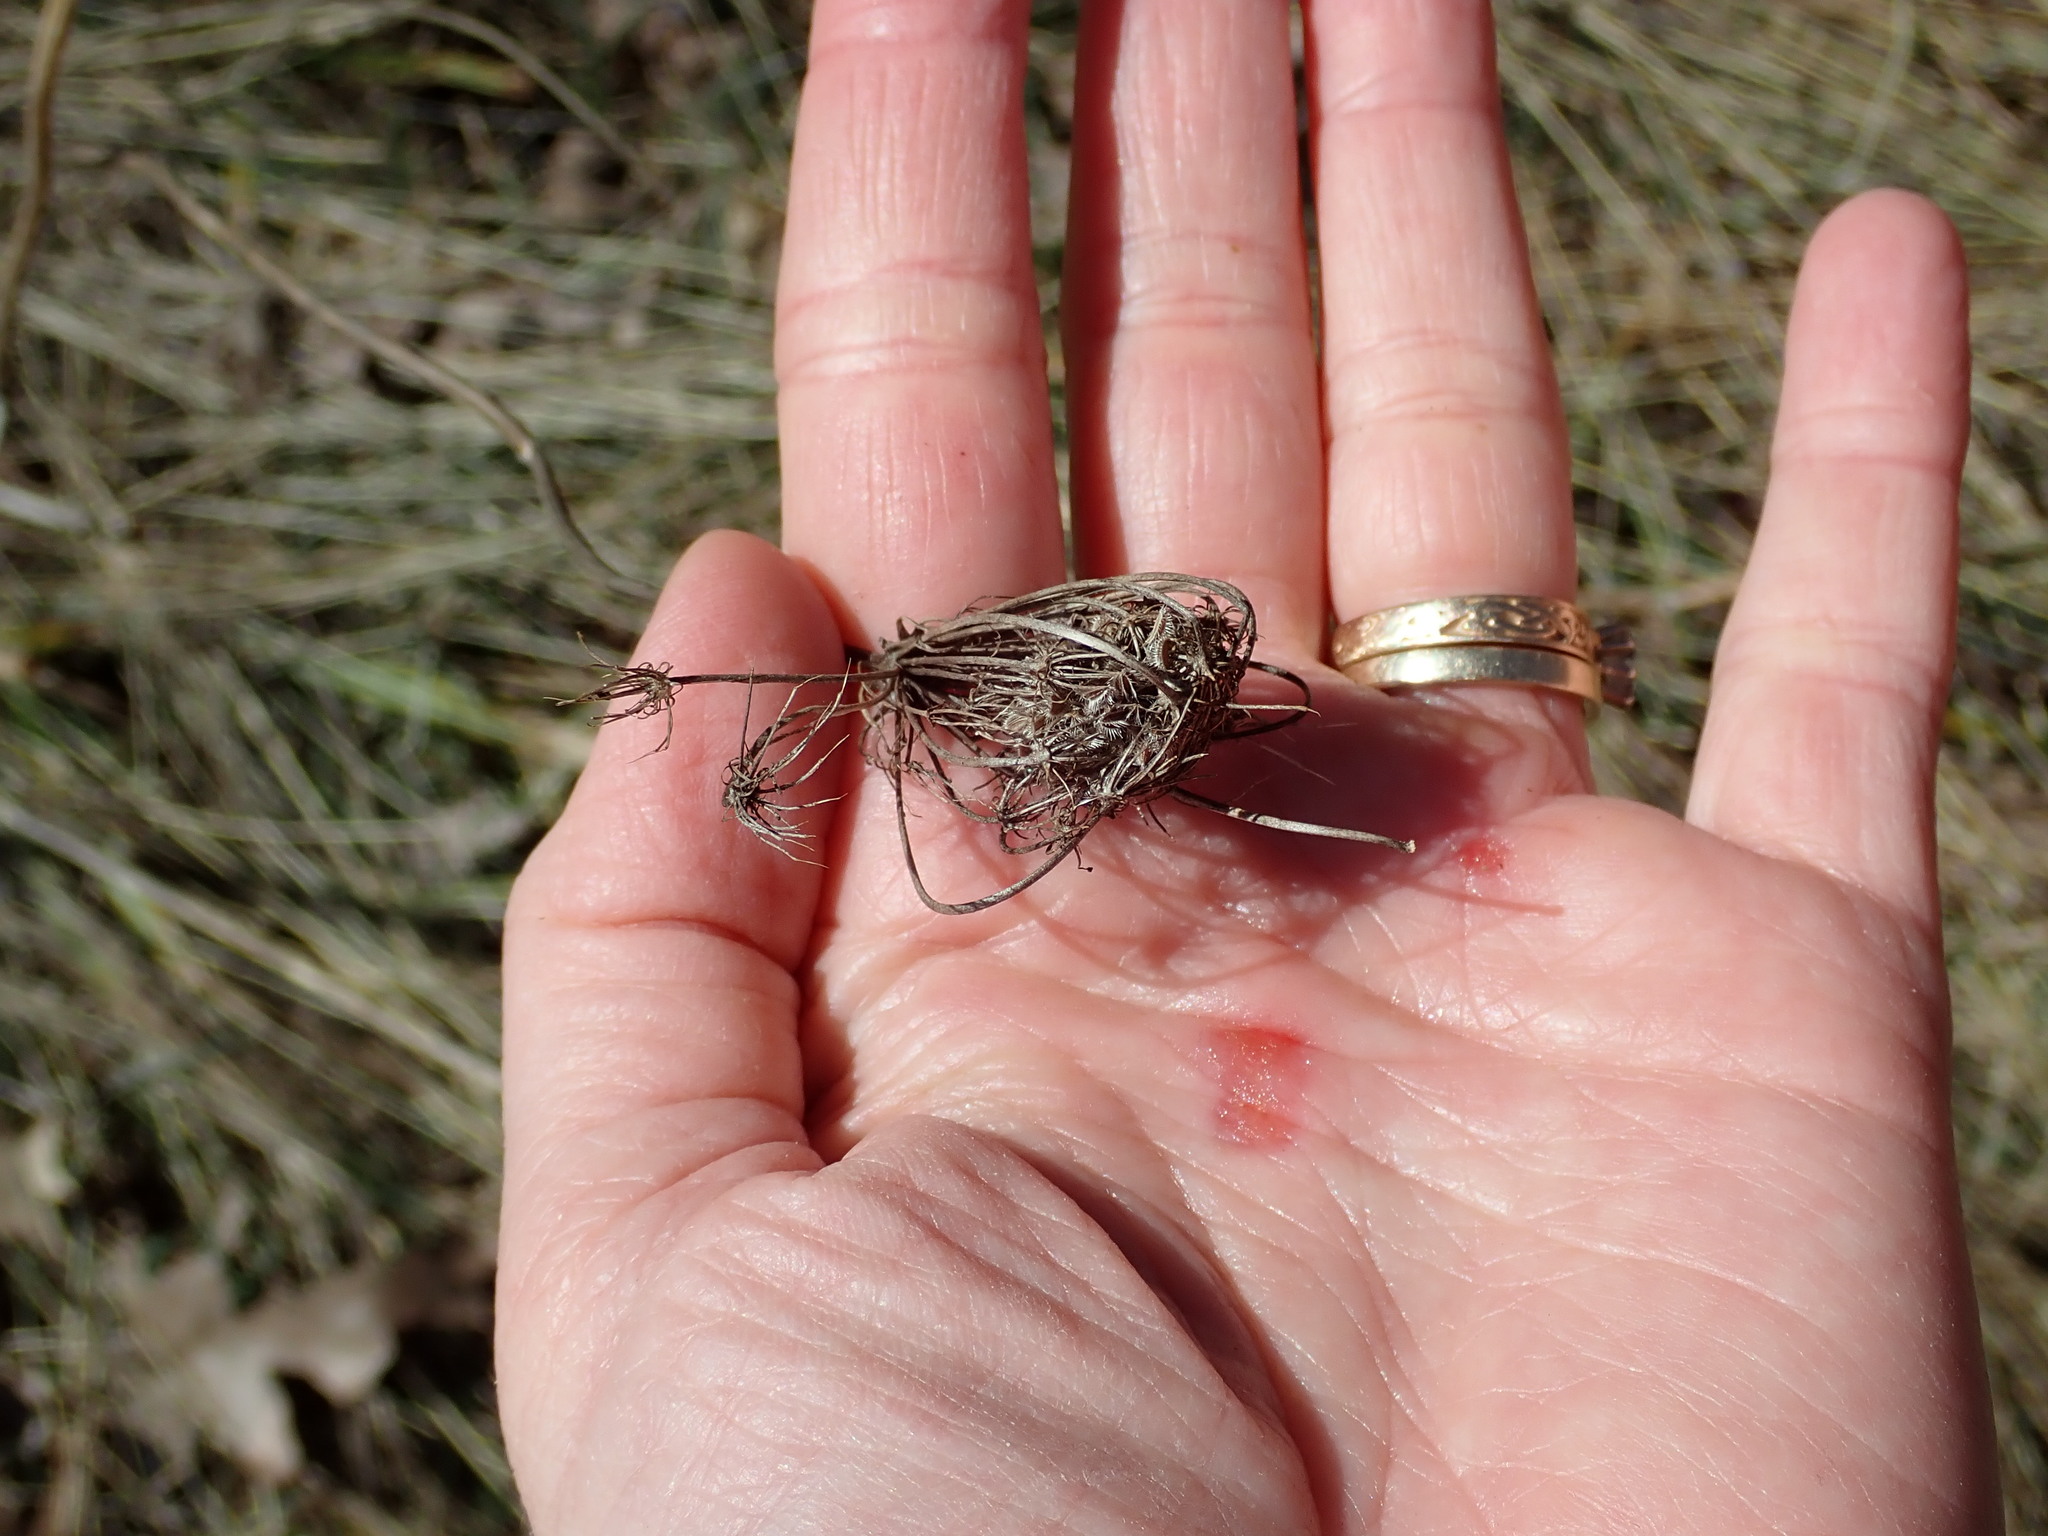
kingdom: Plantae
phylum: Tracheophyta
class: Magnoliopsida
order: Apiales
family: Apiaceae
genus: Daucus
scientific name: Daucus carota
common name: Wild carrot
